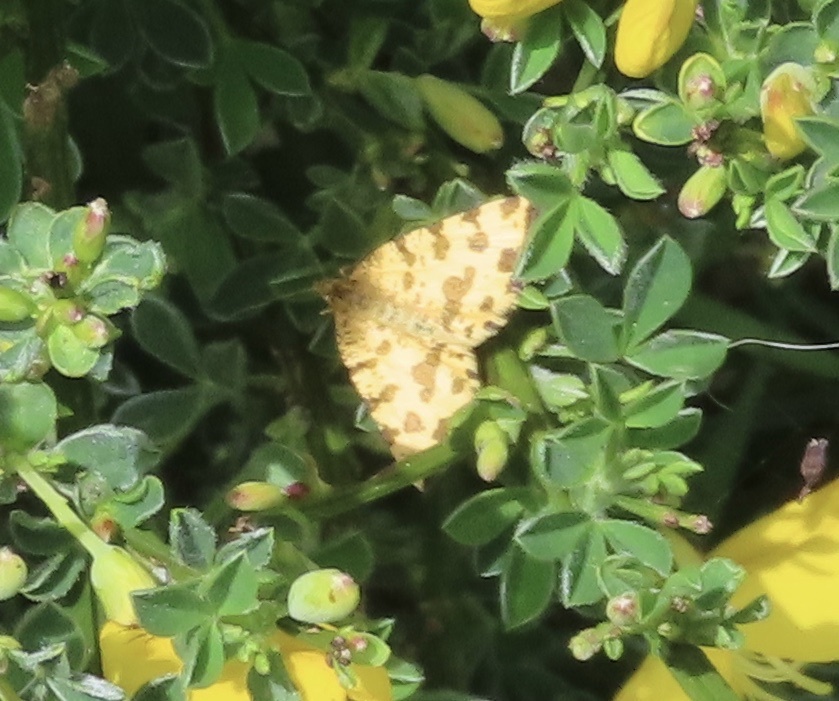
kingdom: Animalia
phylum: Arthropoda
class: Insecta
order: Lepidoptera
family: Geometridae
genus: Pseudopanthera
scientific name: Pseudopanthera macularia
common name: Speckled yellow
